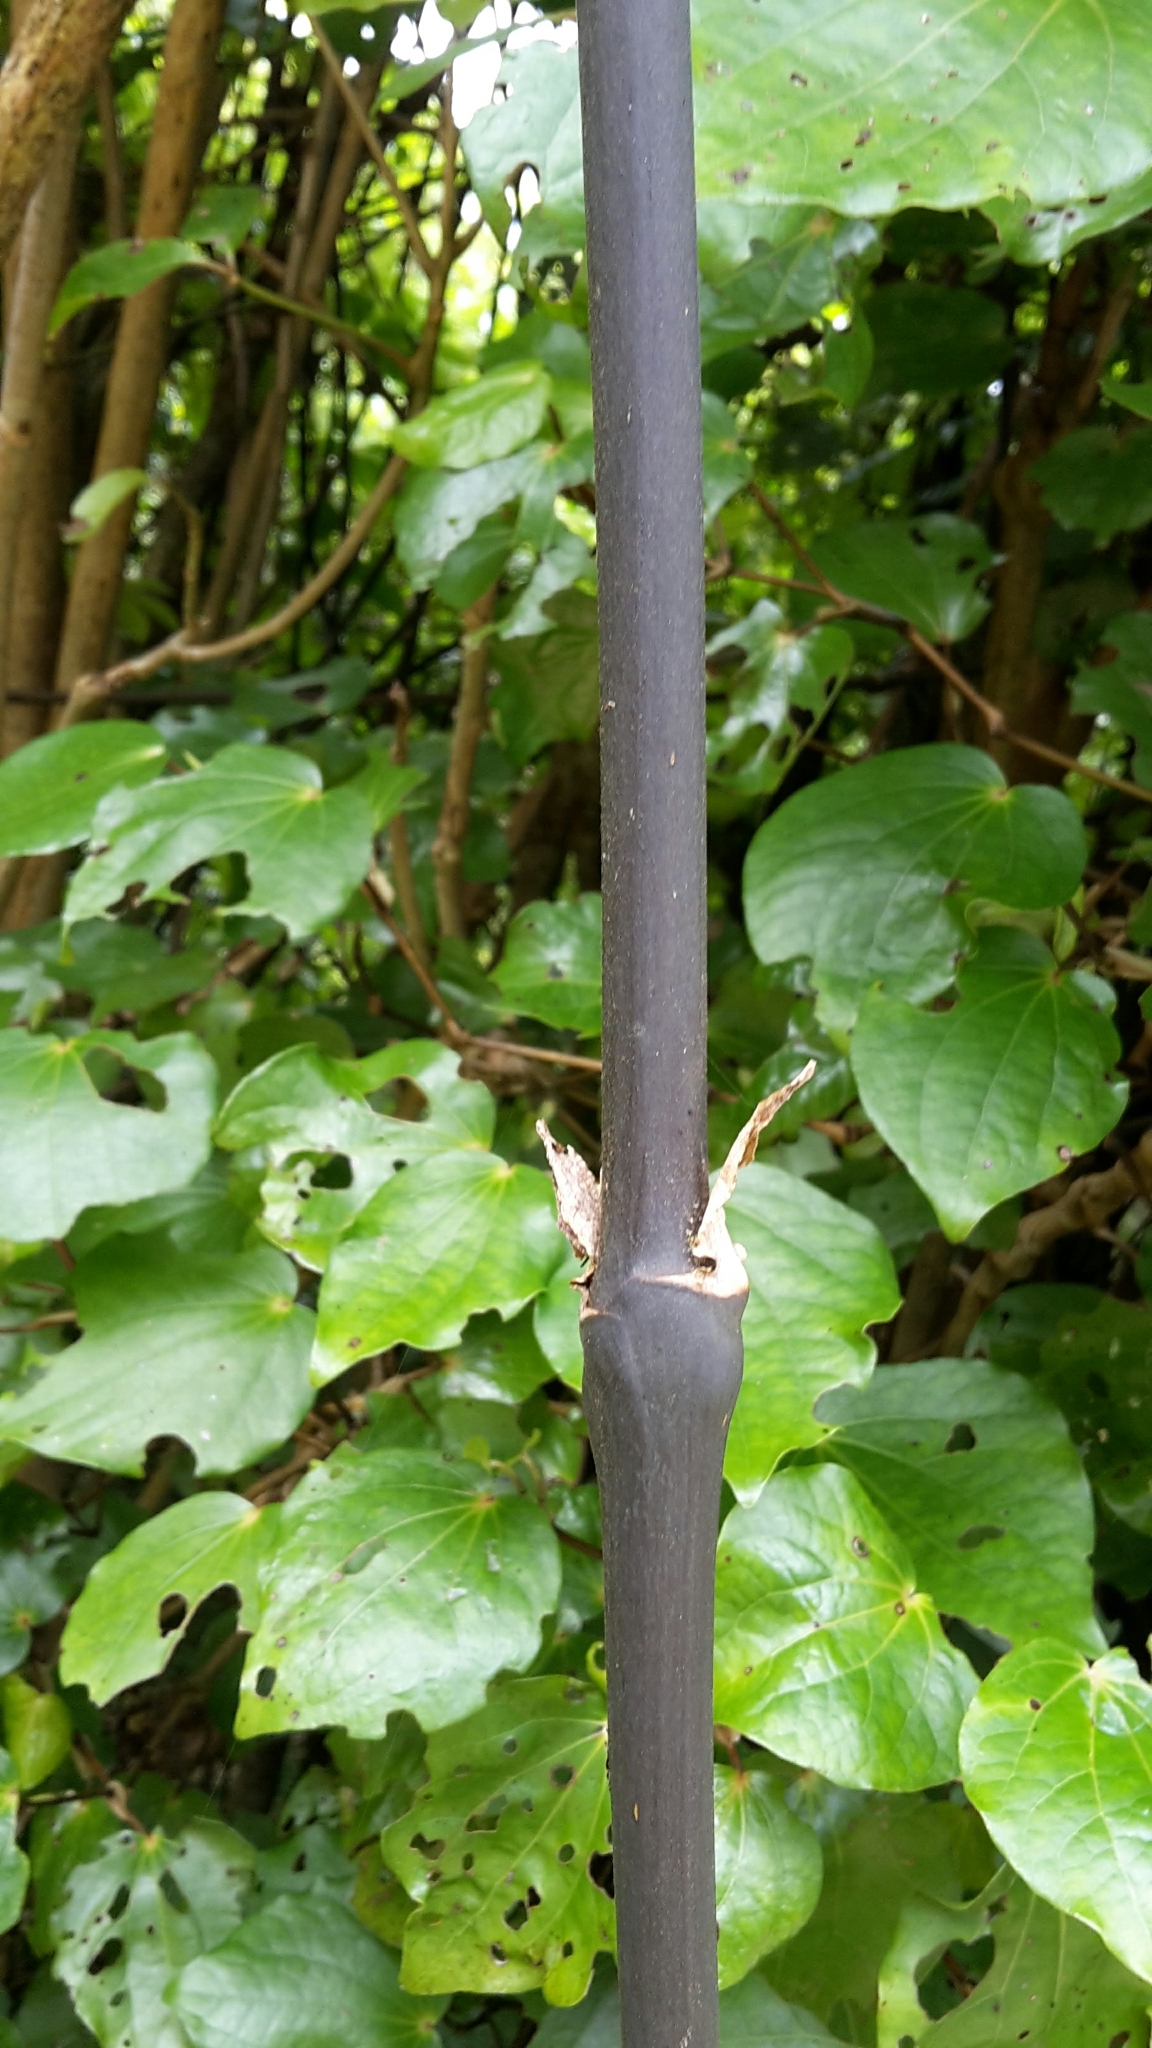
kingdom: Plantae
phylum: Tracheophyta
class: Liliopsida
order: Liliales
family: Ripogonaceae
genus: Ripogonum
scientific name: Ripogonum scandens
